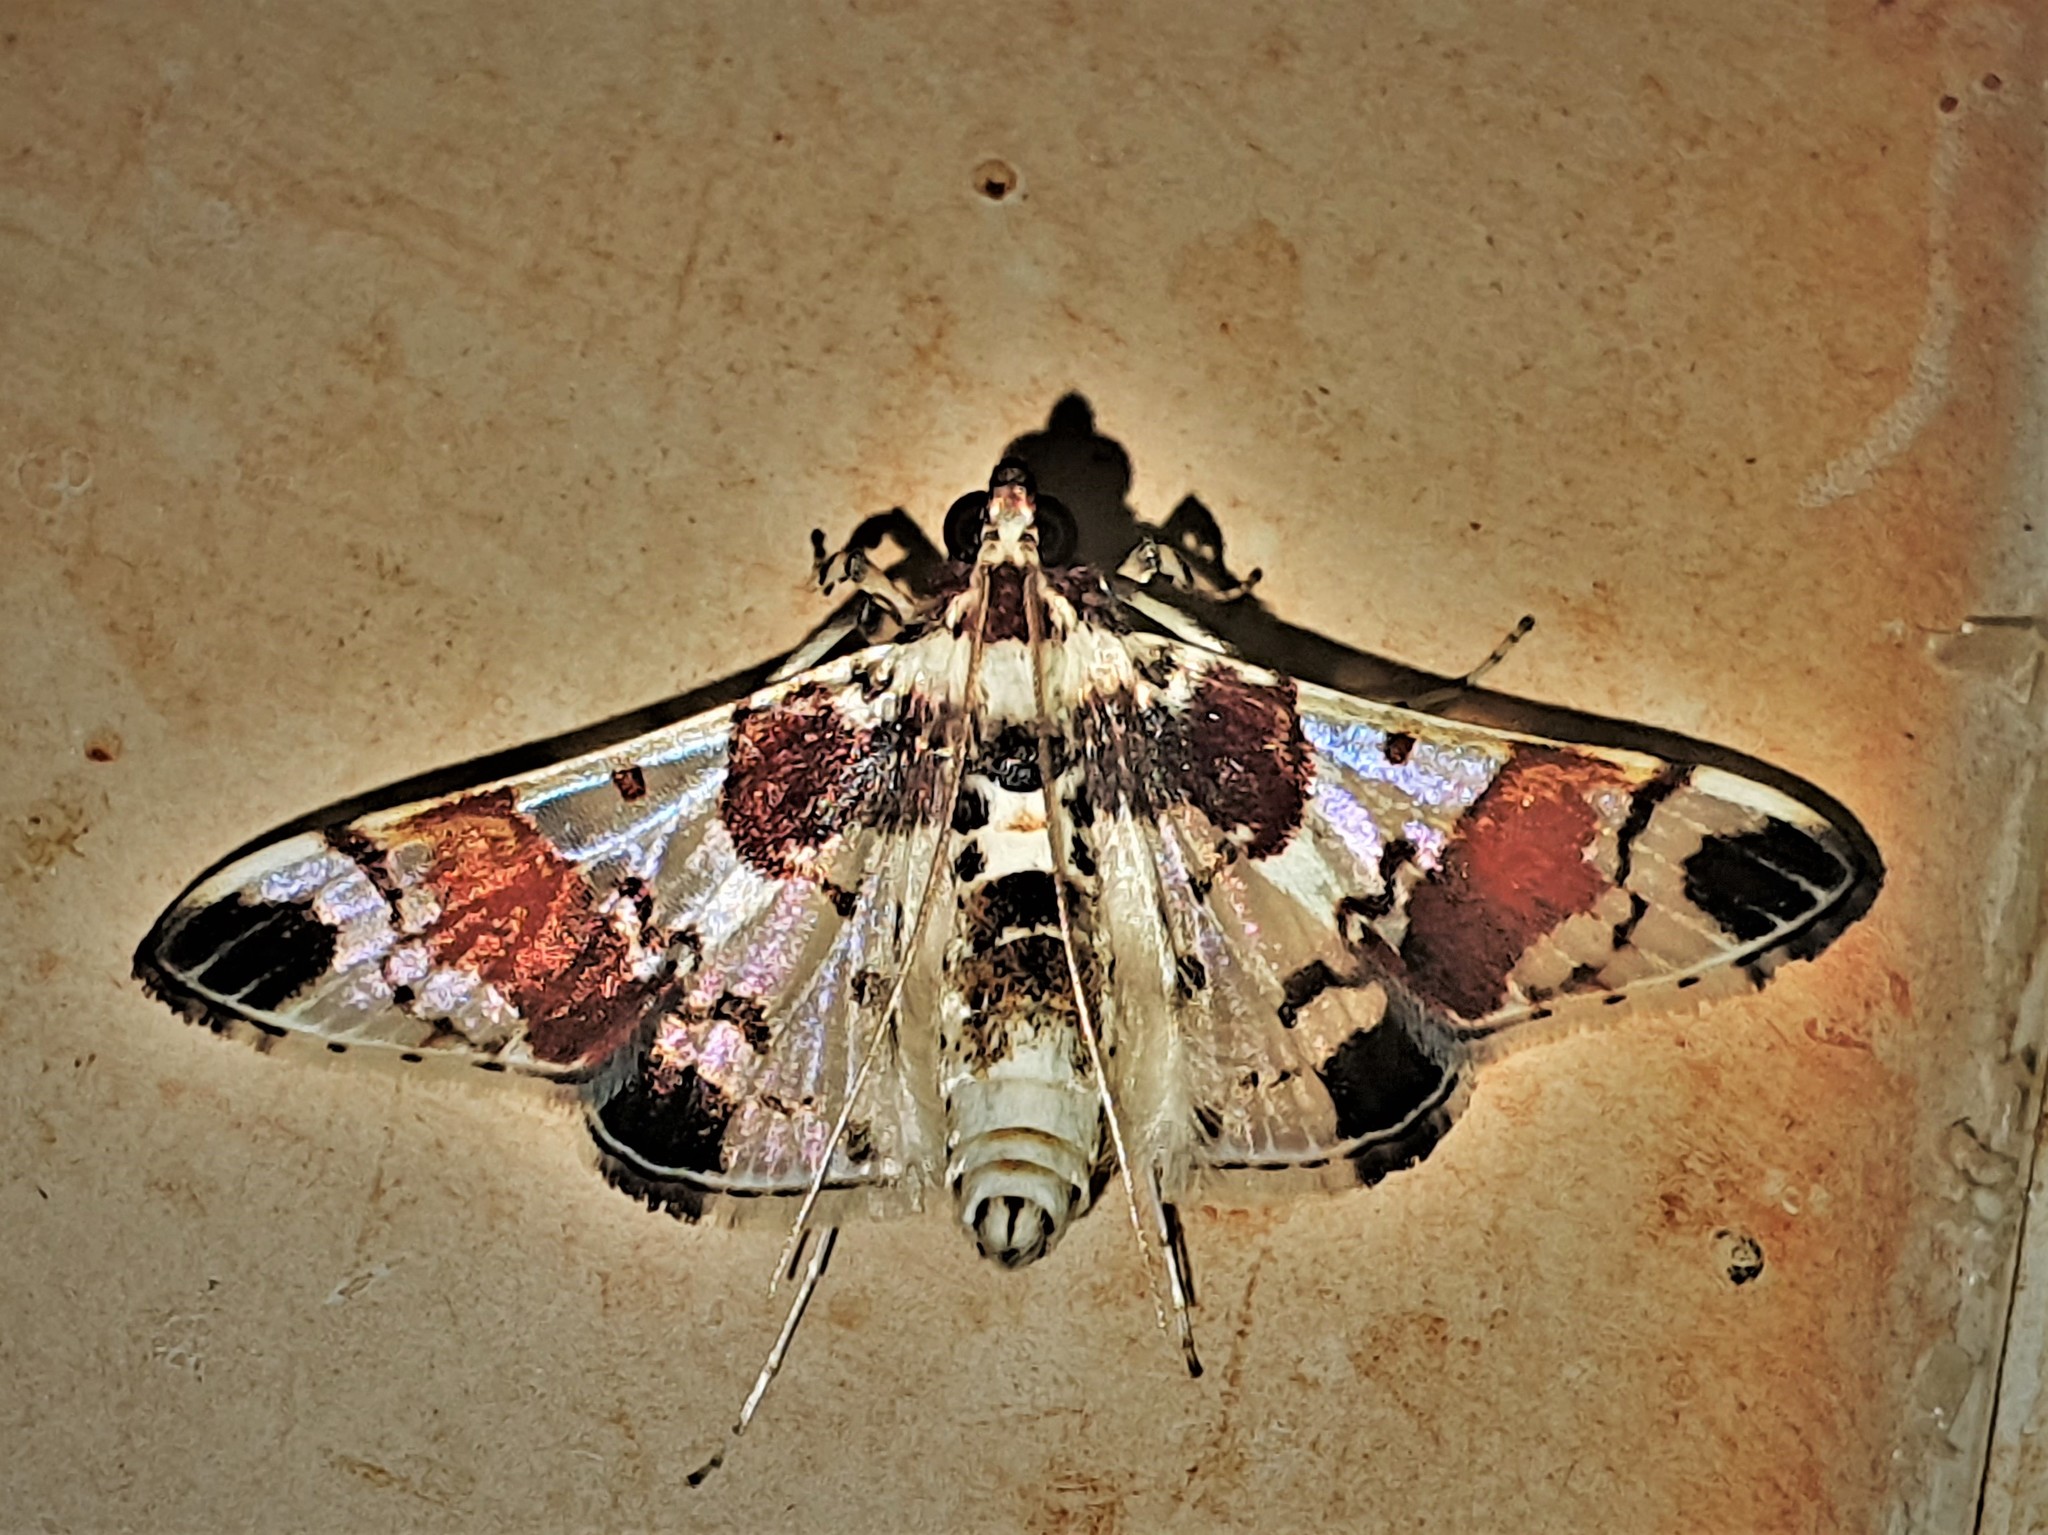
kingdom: Animalia
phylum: Arthropoda
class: Insecta
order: Lepidoptera
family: Crambidae
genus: Syngamilyta
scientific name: Syngamilyta
